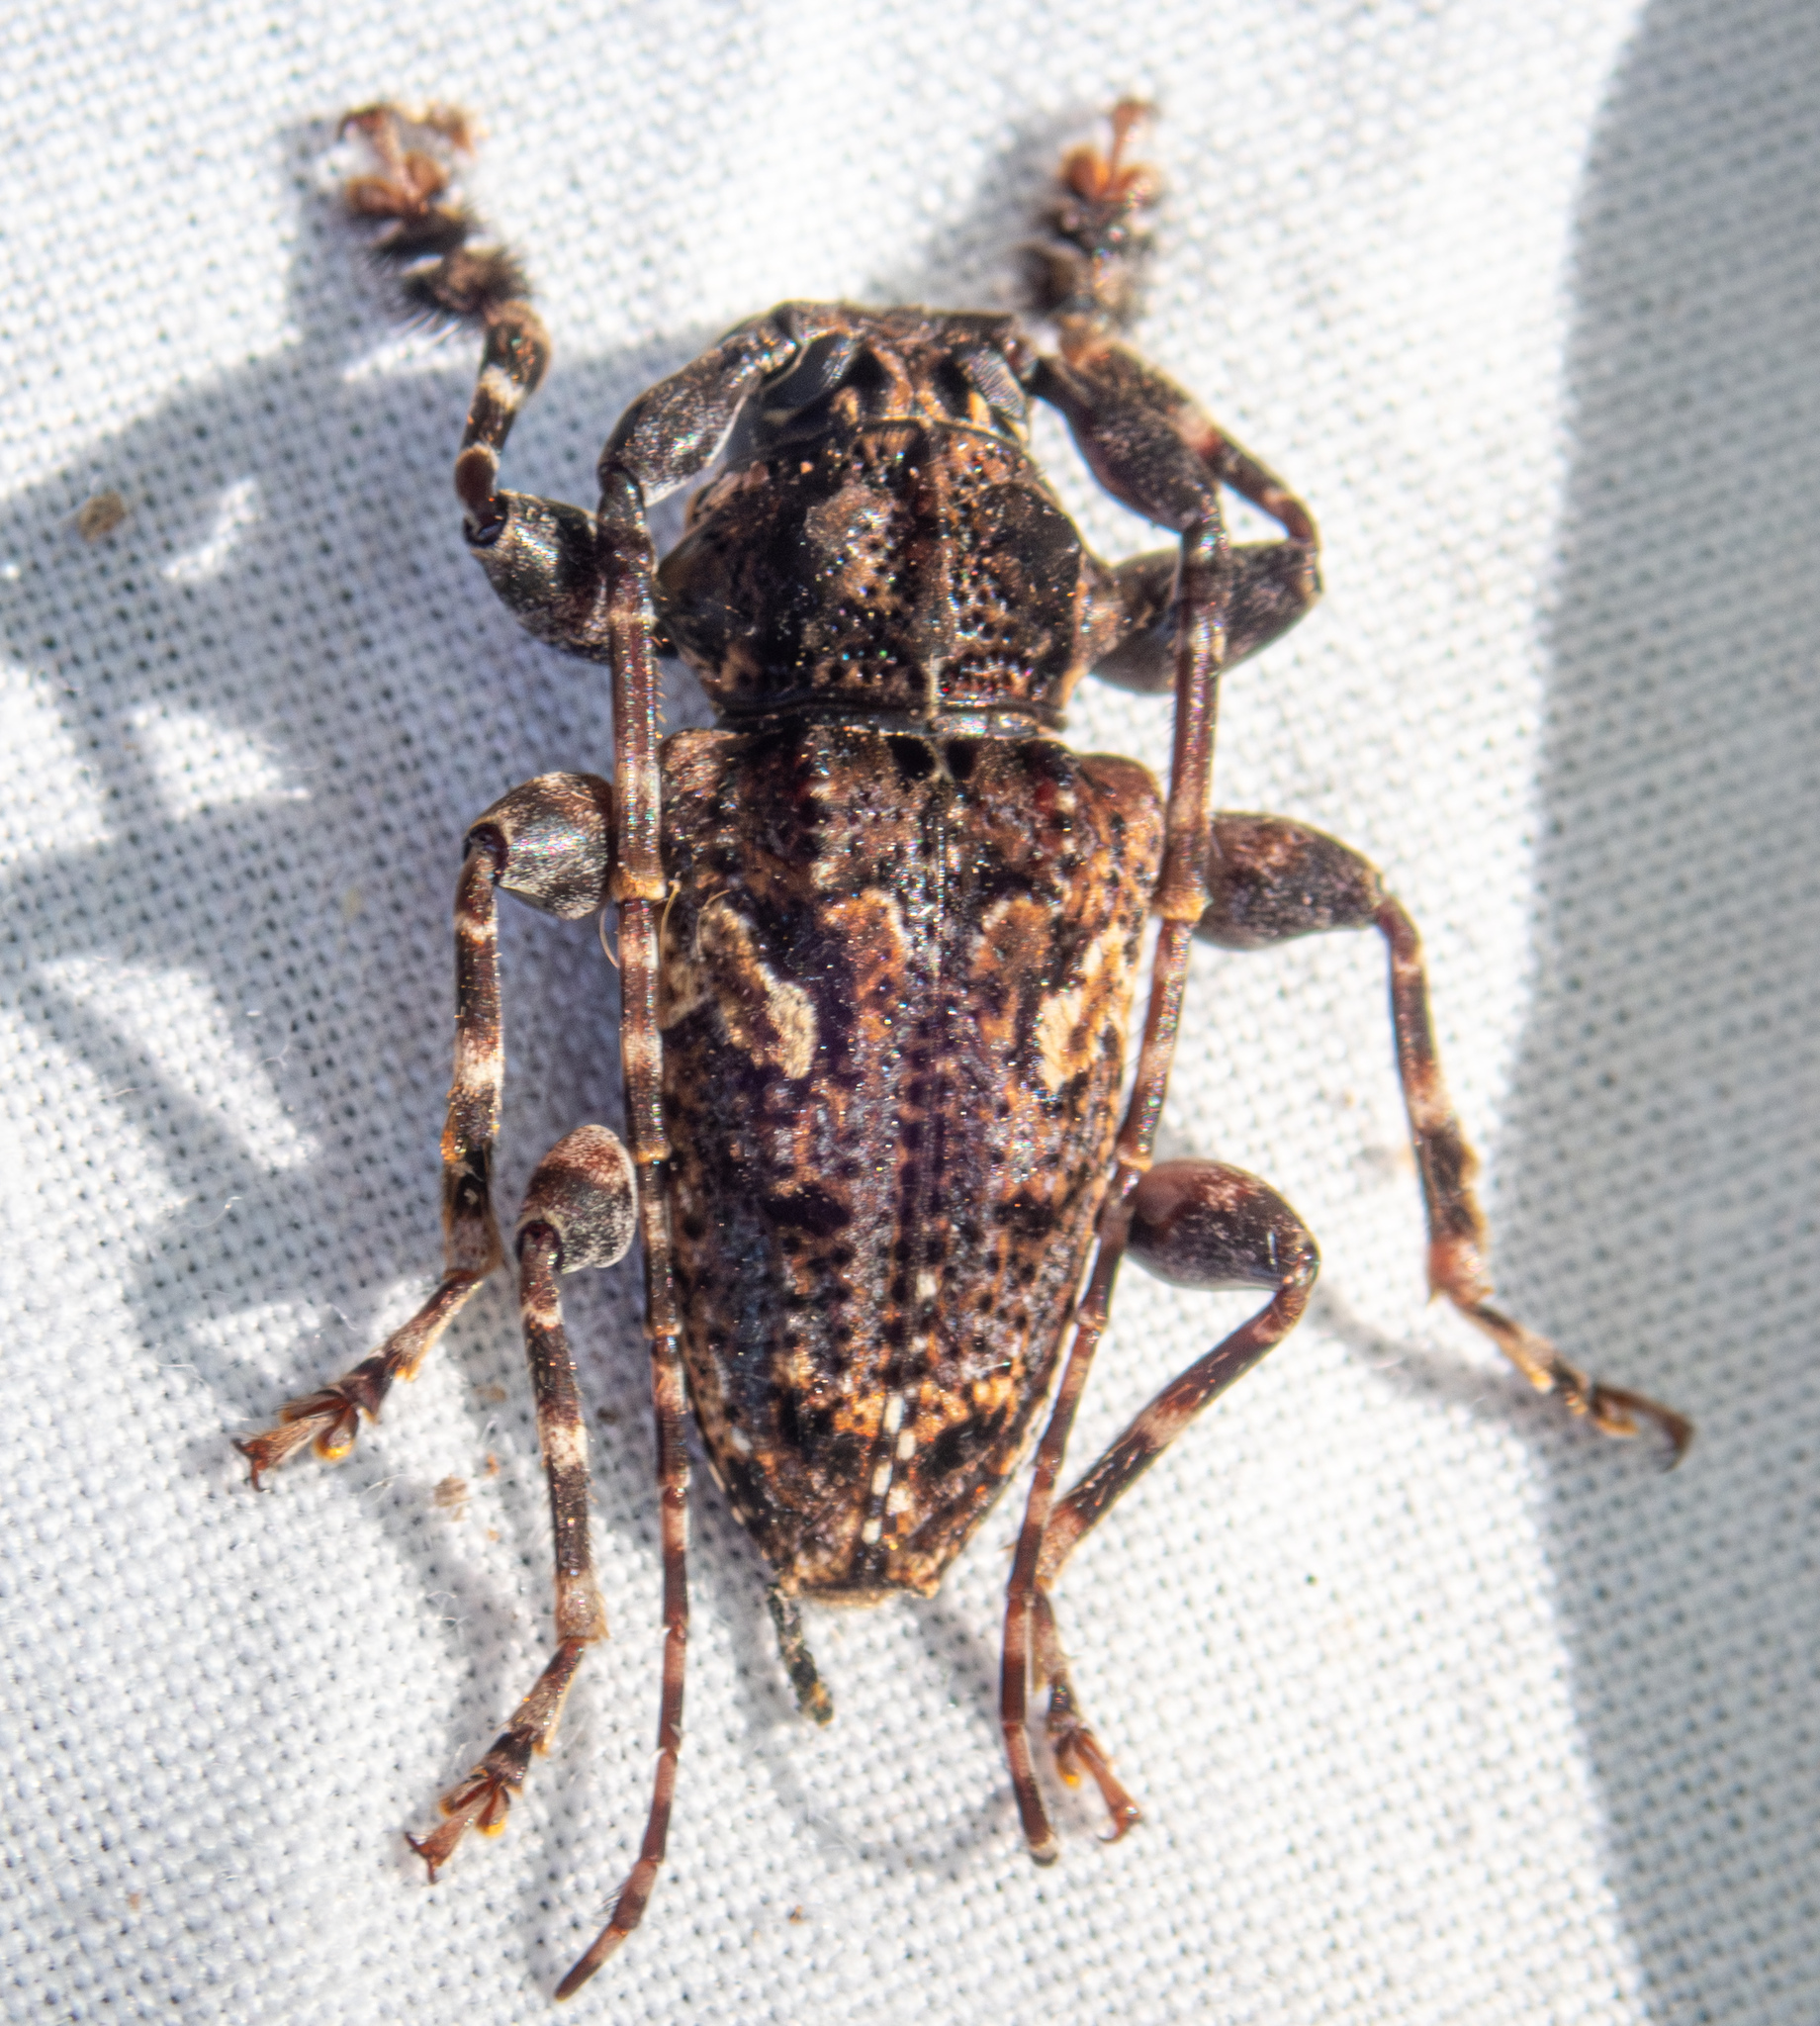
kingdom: Animalia
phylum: Arthropoda
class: Insecta
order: Coleoptera
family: Cerambycidae
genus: Psapharochrus
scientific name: Psapharochrus circumflexus
